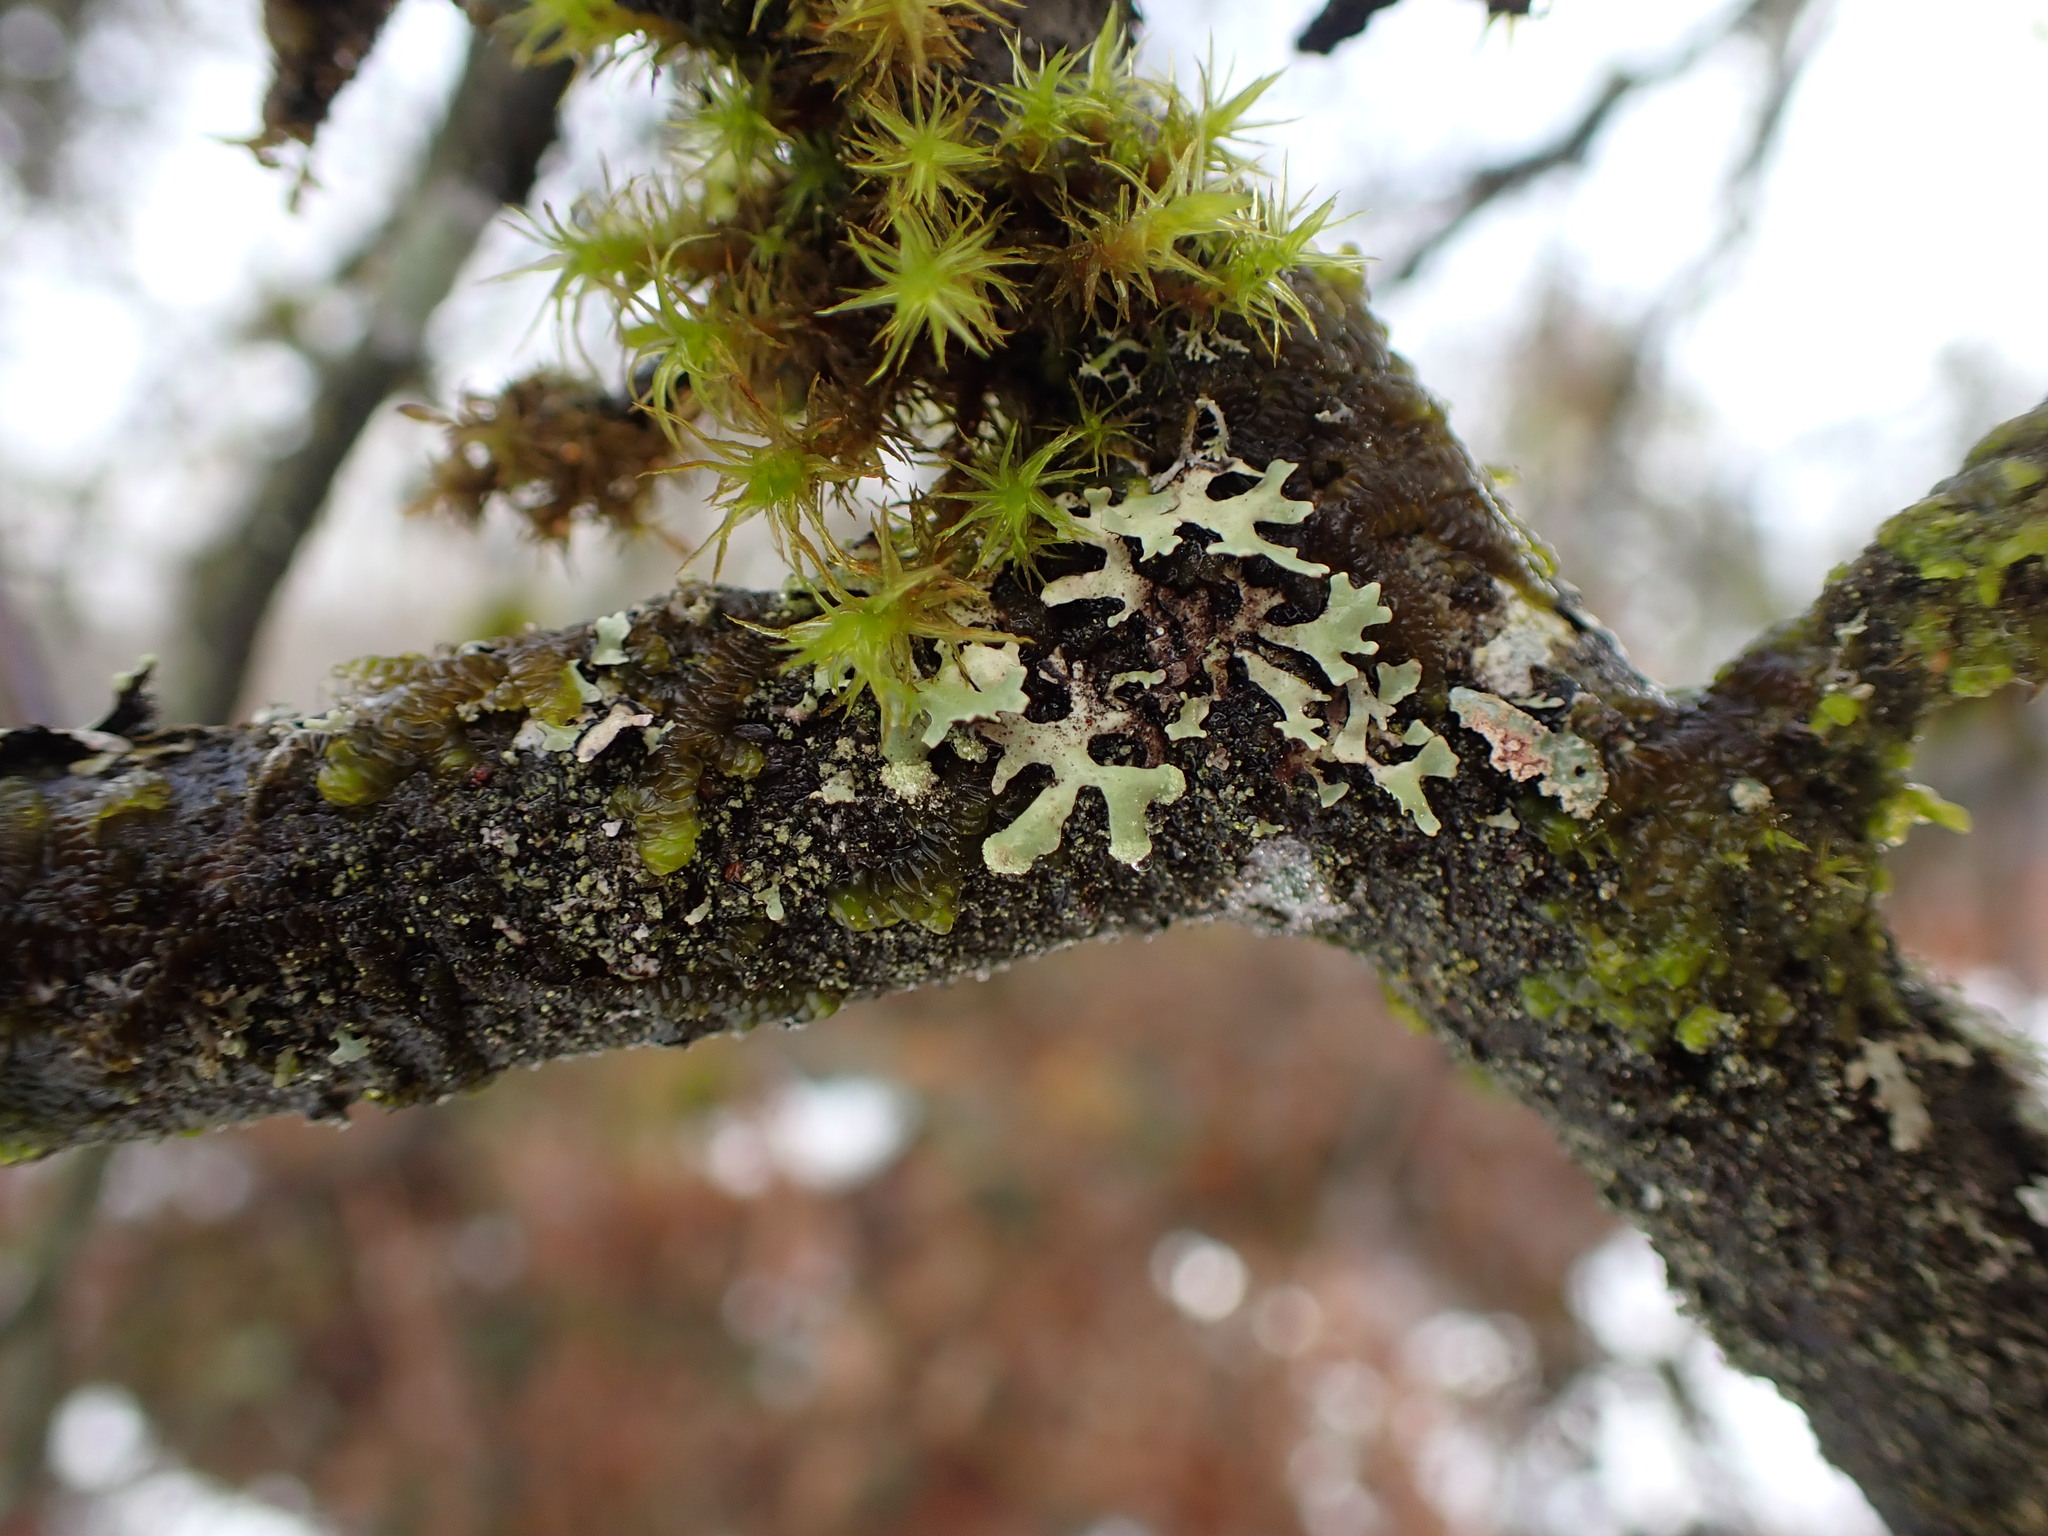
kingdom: Fungi
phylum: Ascomycota
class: Lecanoromycetes
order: Lecanorales
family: Parmeliaceae
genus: Hypotrachyna
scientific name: Hypotrachyna sinuosa
